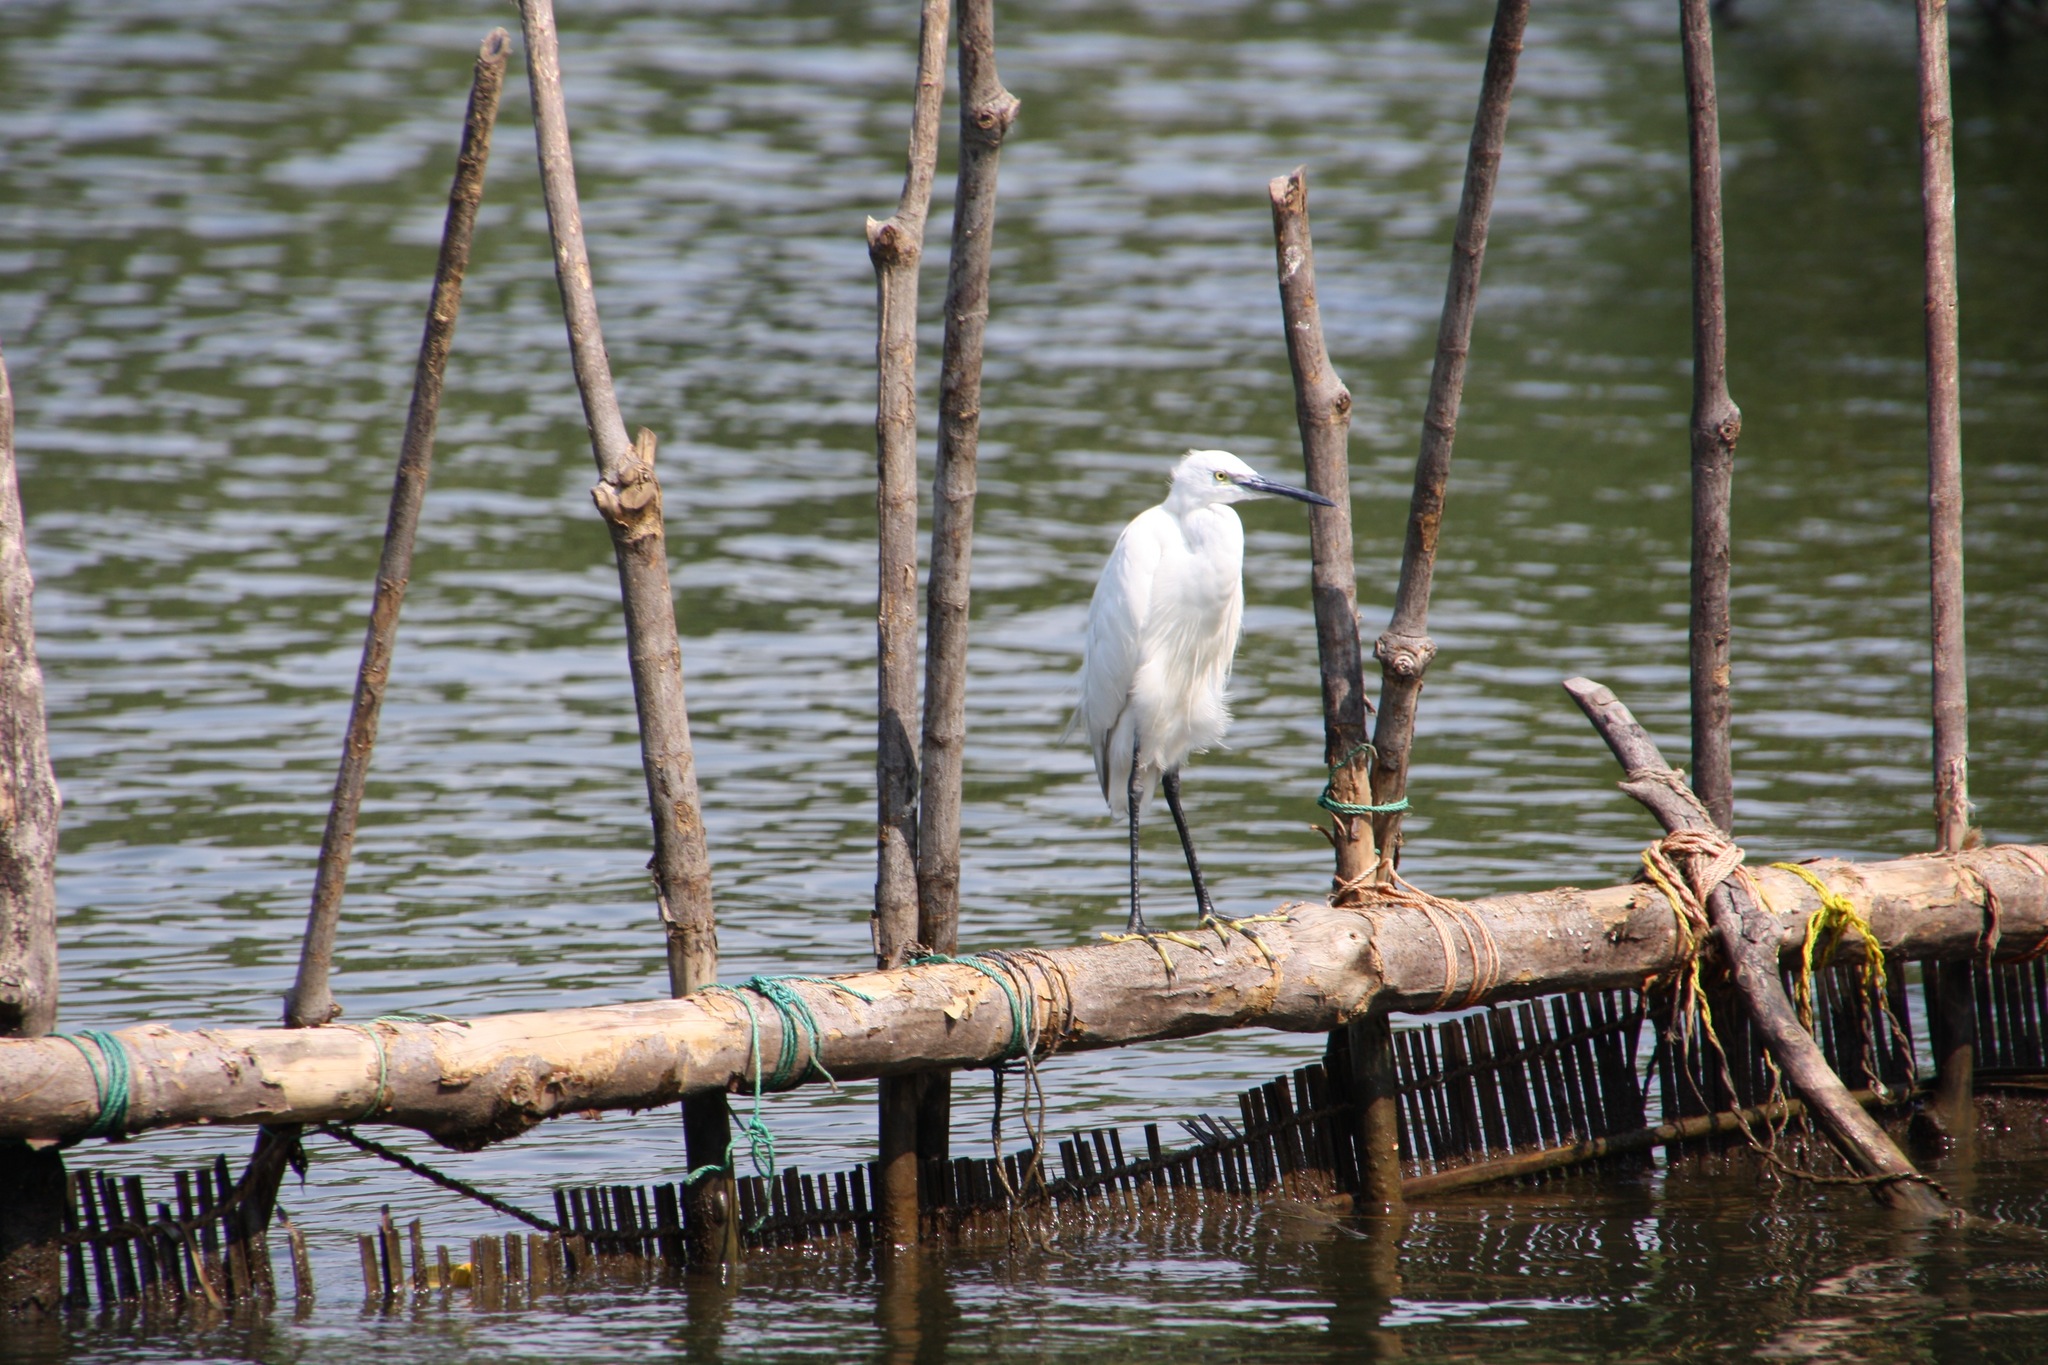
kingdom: Animalia
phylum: Chordata
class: Aves
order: Pelecaniformes
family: Ardeidae
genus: Egretta
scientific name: Egretta garzetta
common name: Little egret
